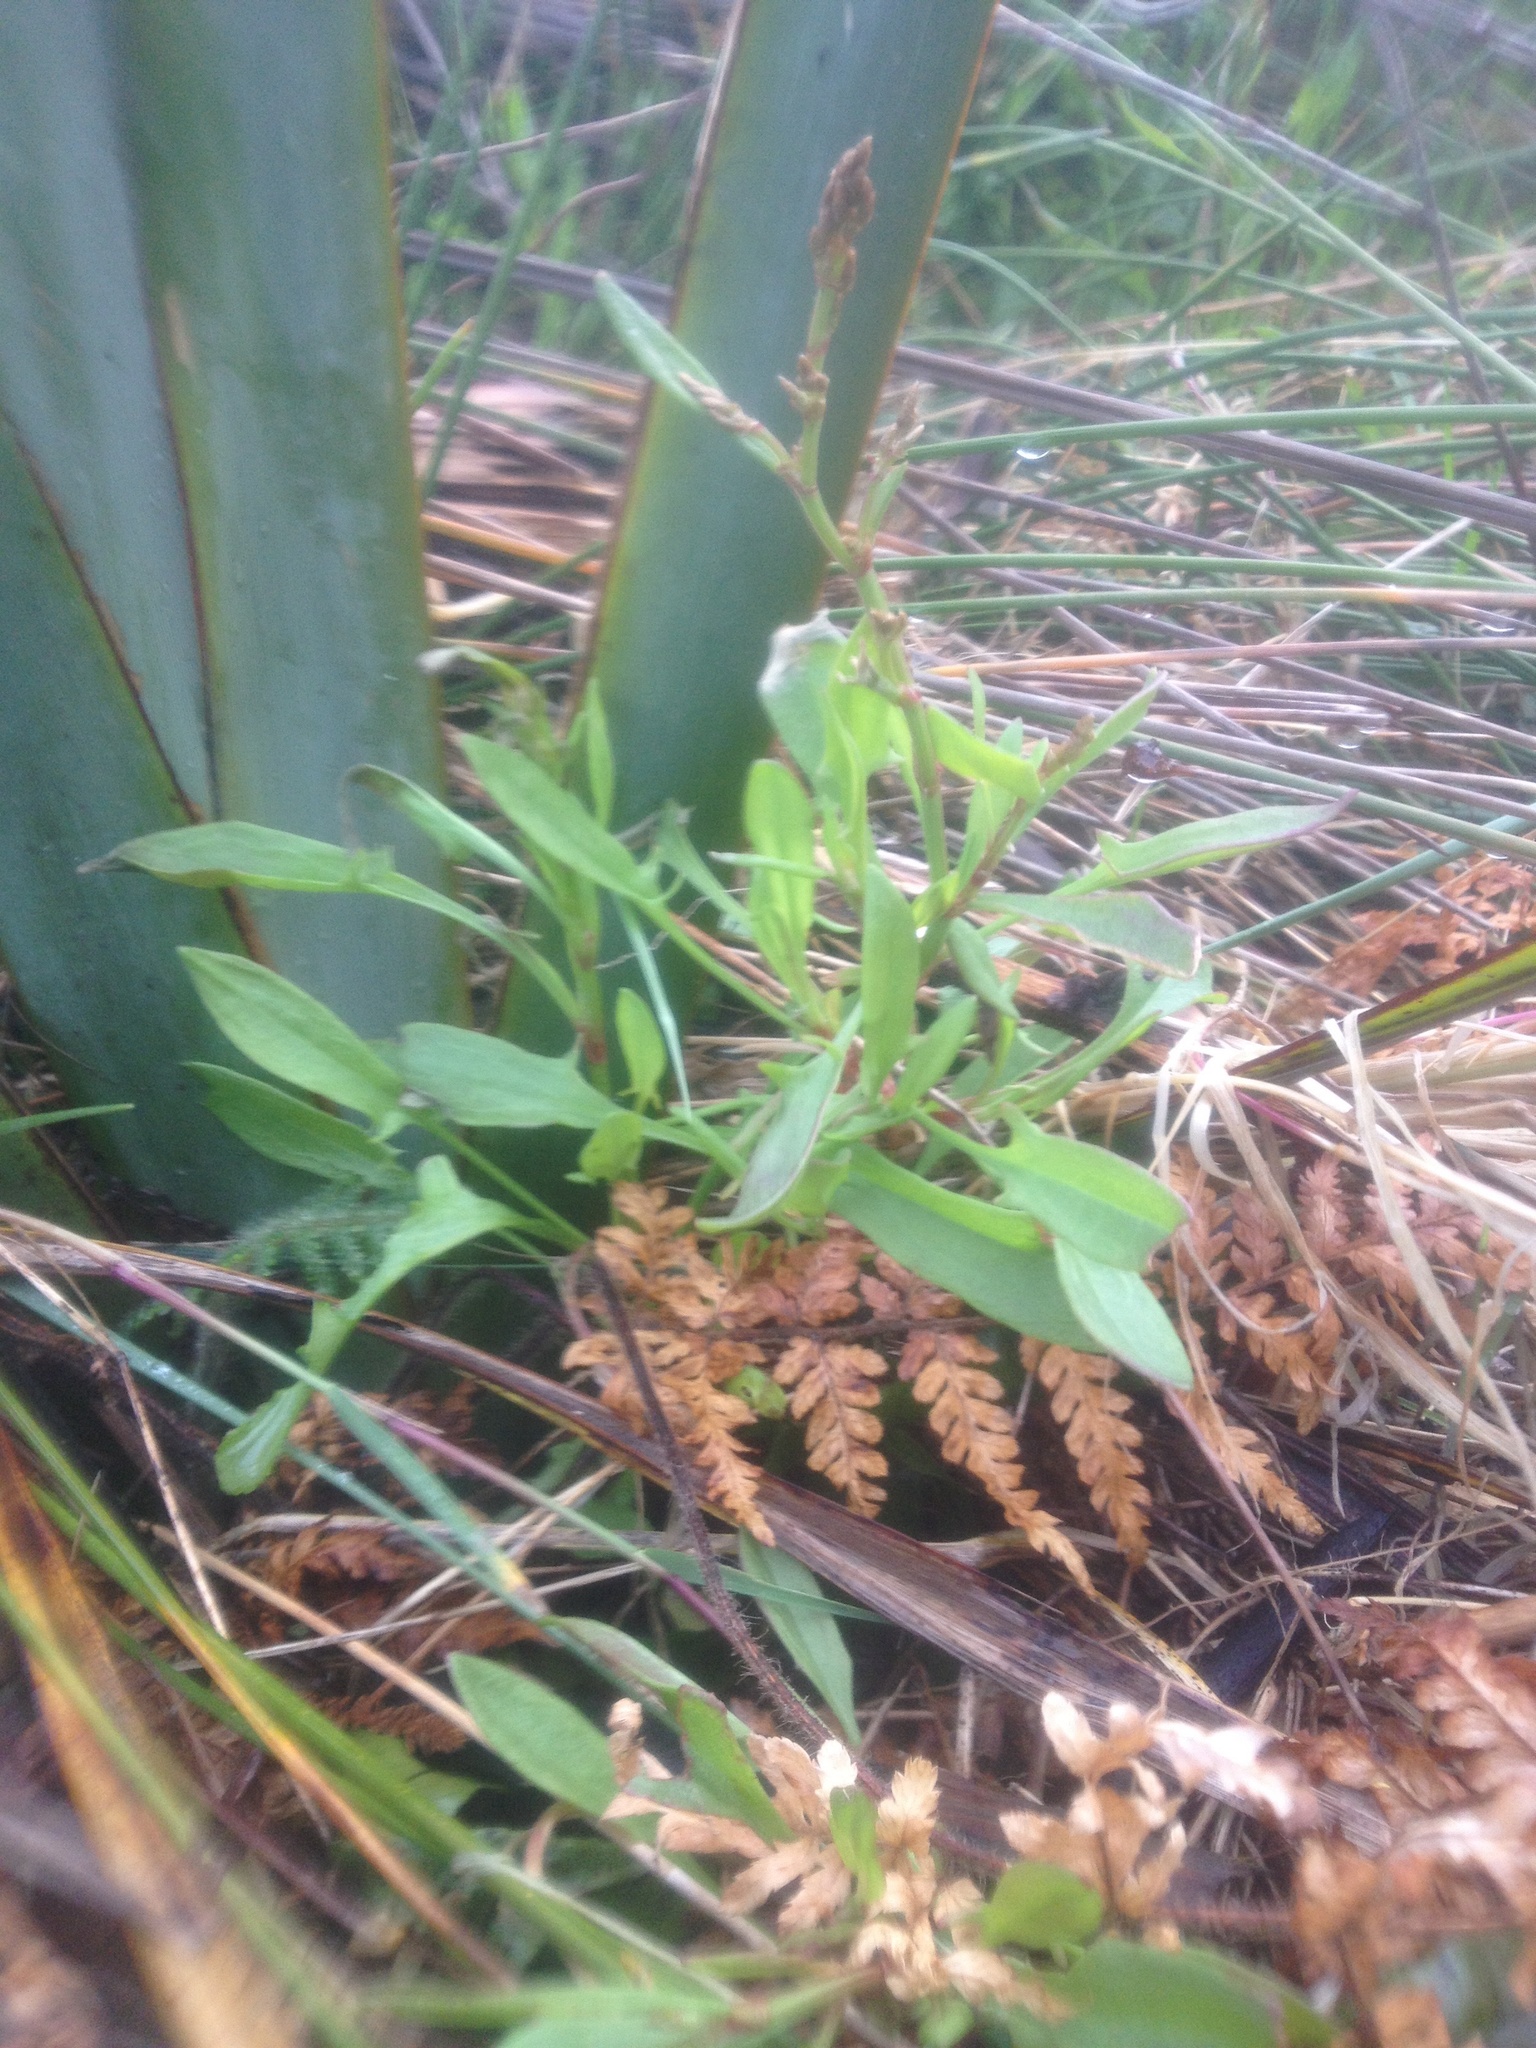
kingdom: Plantae
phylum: Tracheophyta
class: Magnoliopsida
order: Caryophyllales
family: Polygonaceae
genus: Rumex
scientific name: Rumex acetosella
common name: Common sheep sorrel
